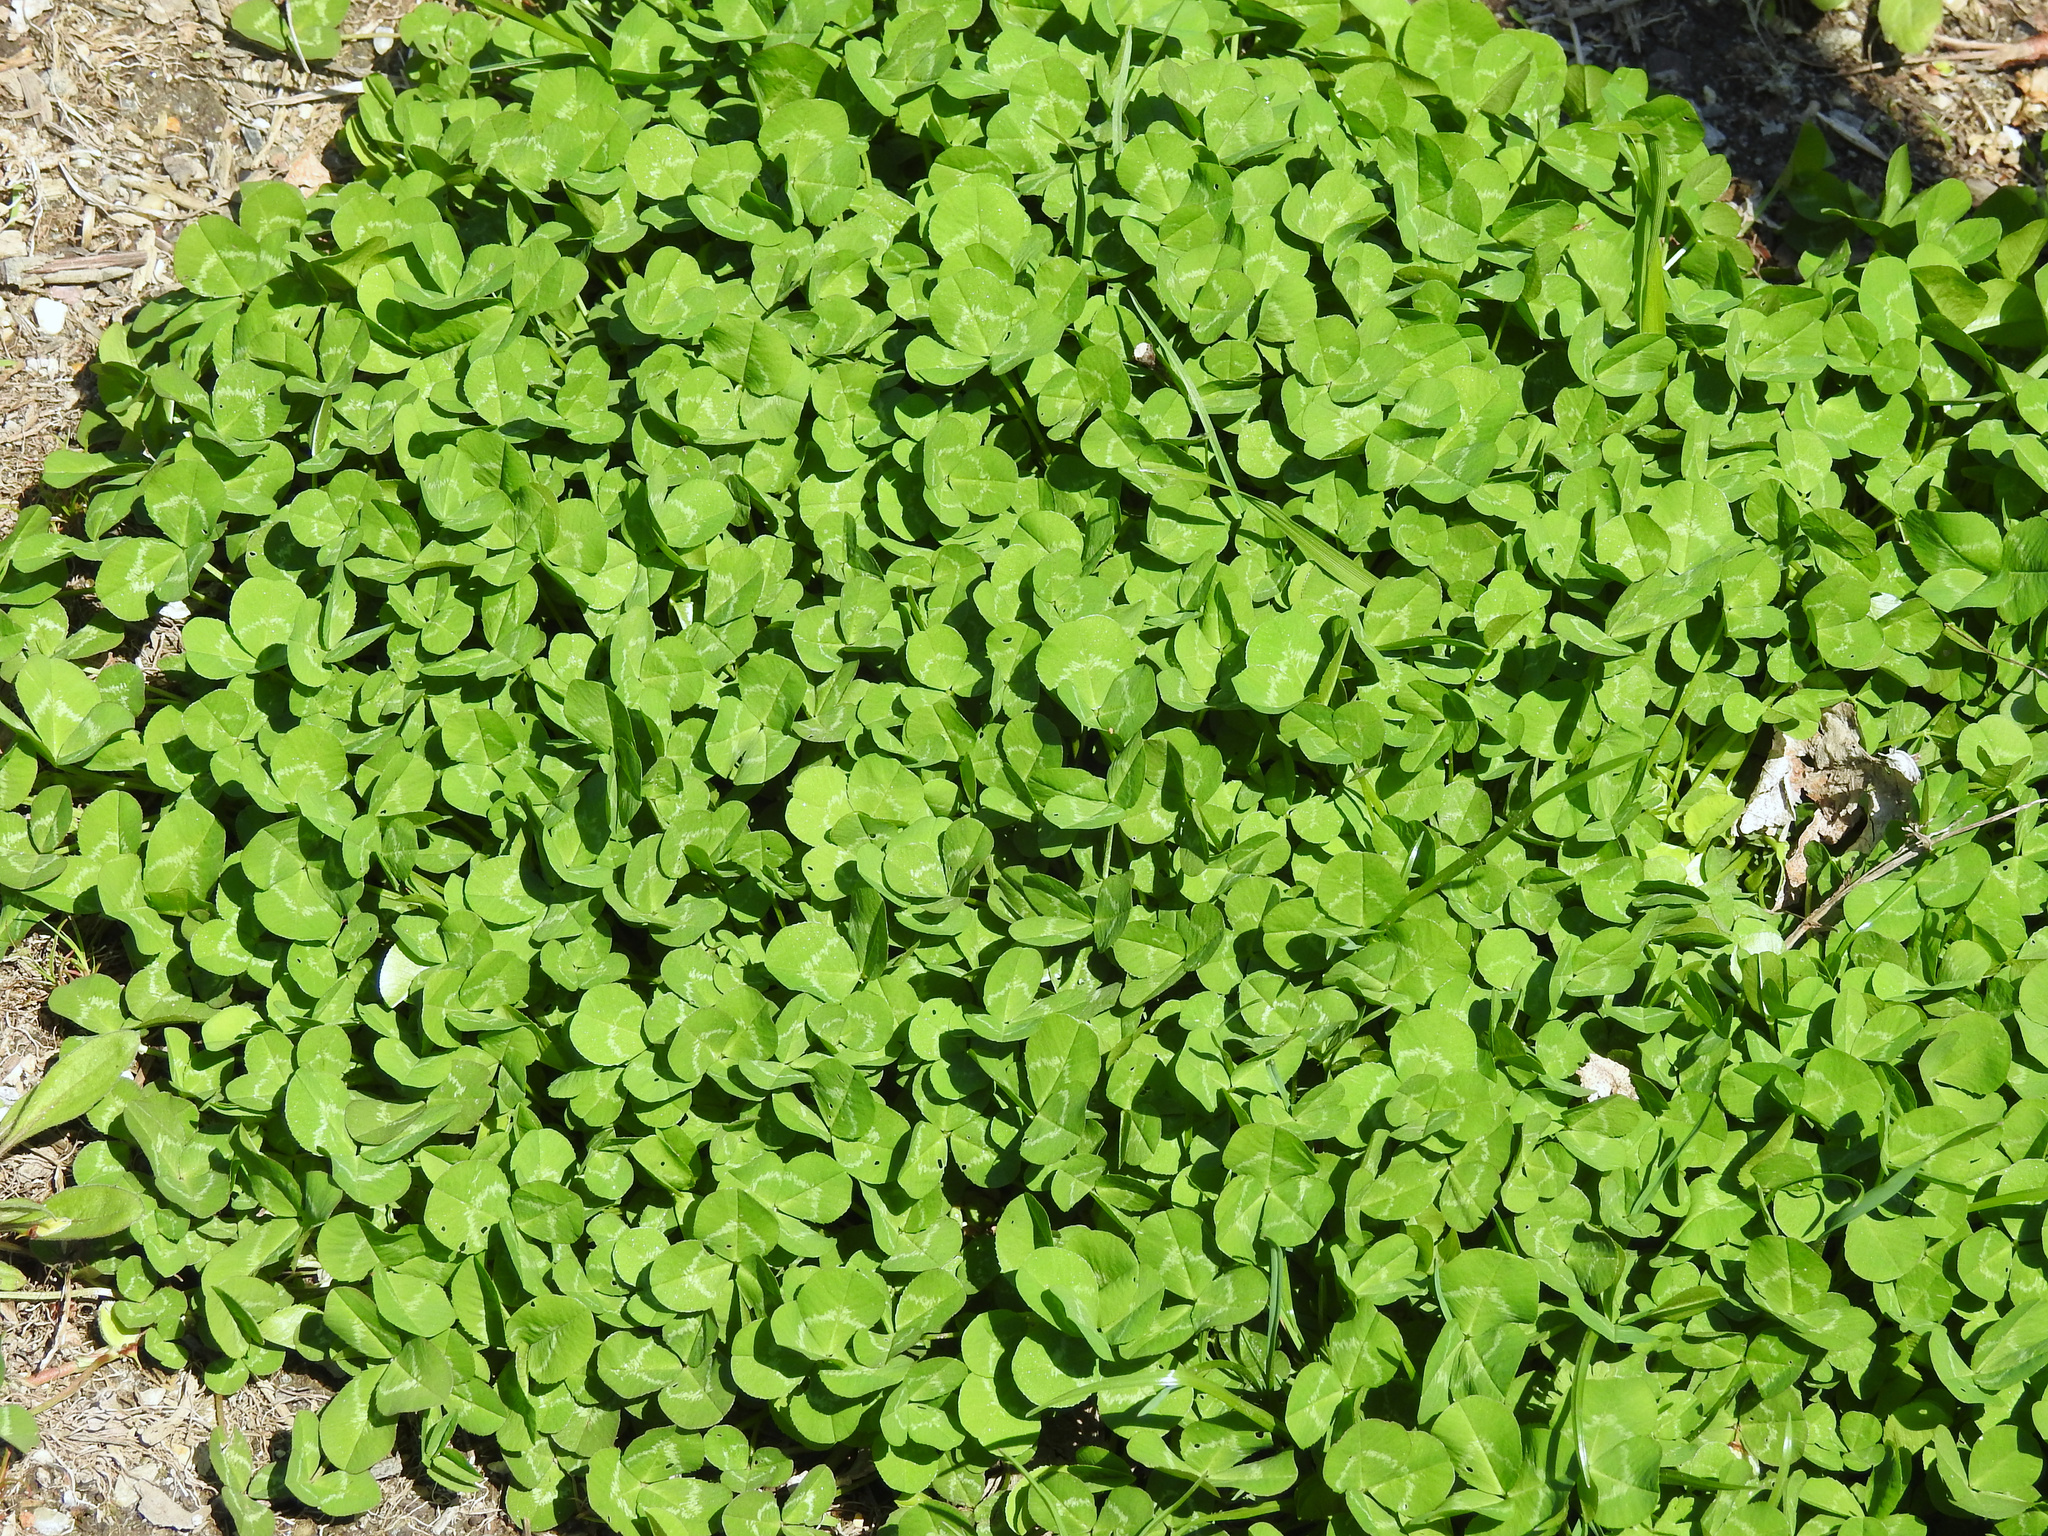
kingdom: Plantae
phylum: Tracheophyta
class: Magnoliopsida
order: Fabales
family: Fabaceae
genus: Trifolium
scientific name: Trifolium repens
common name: White clover
